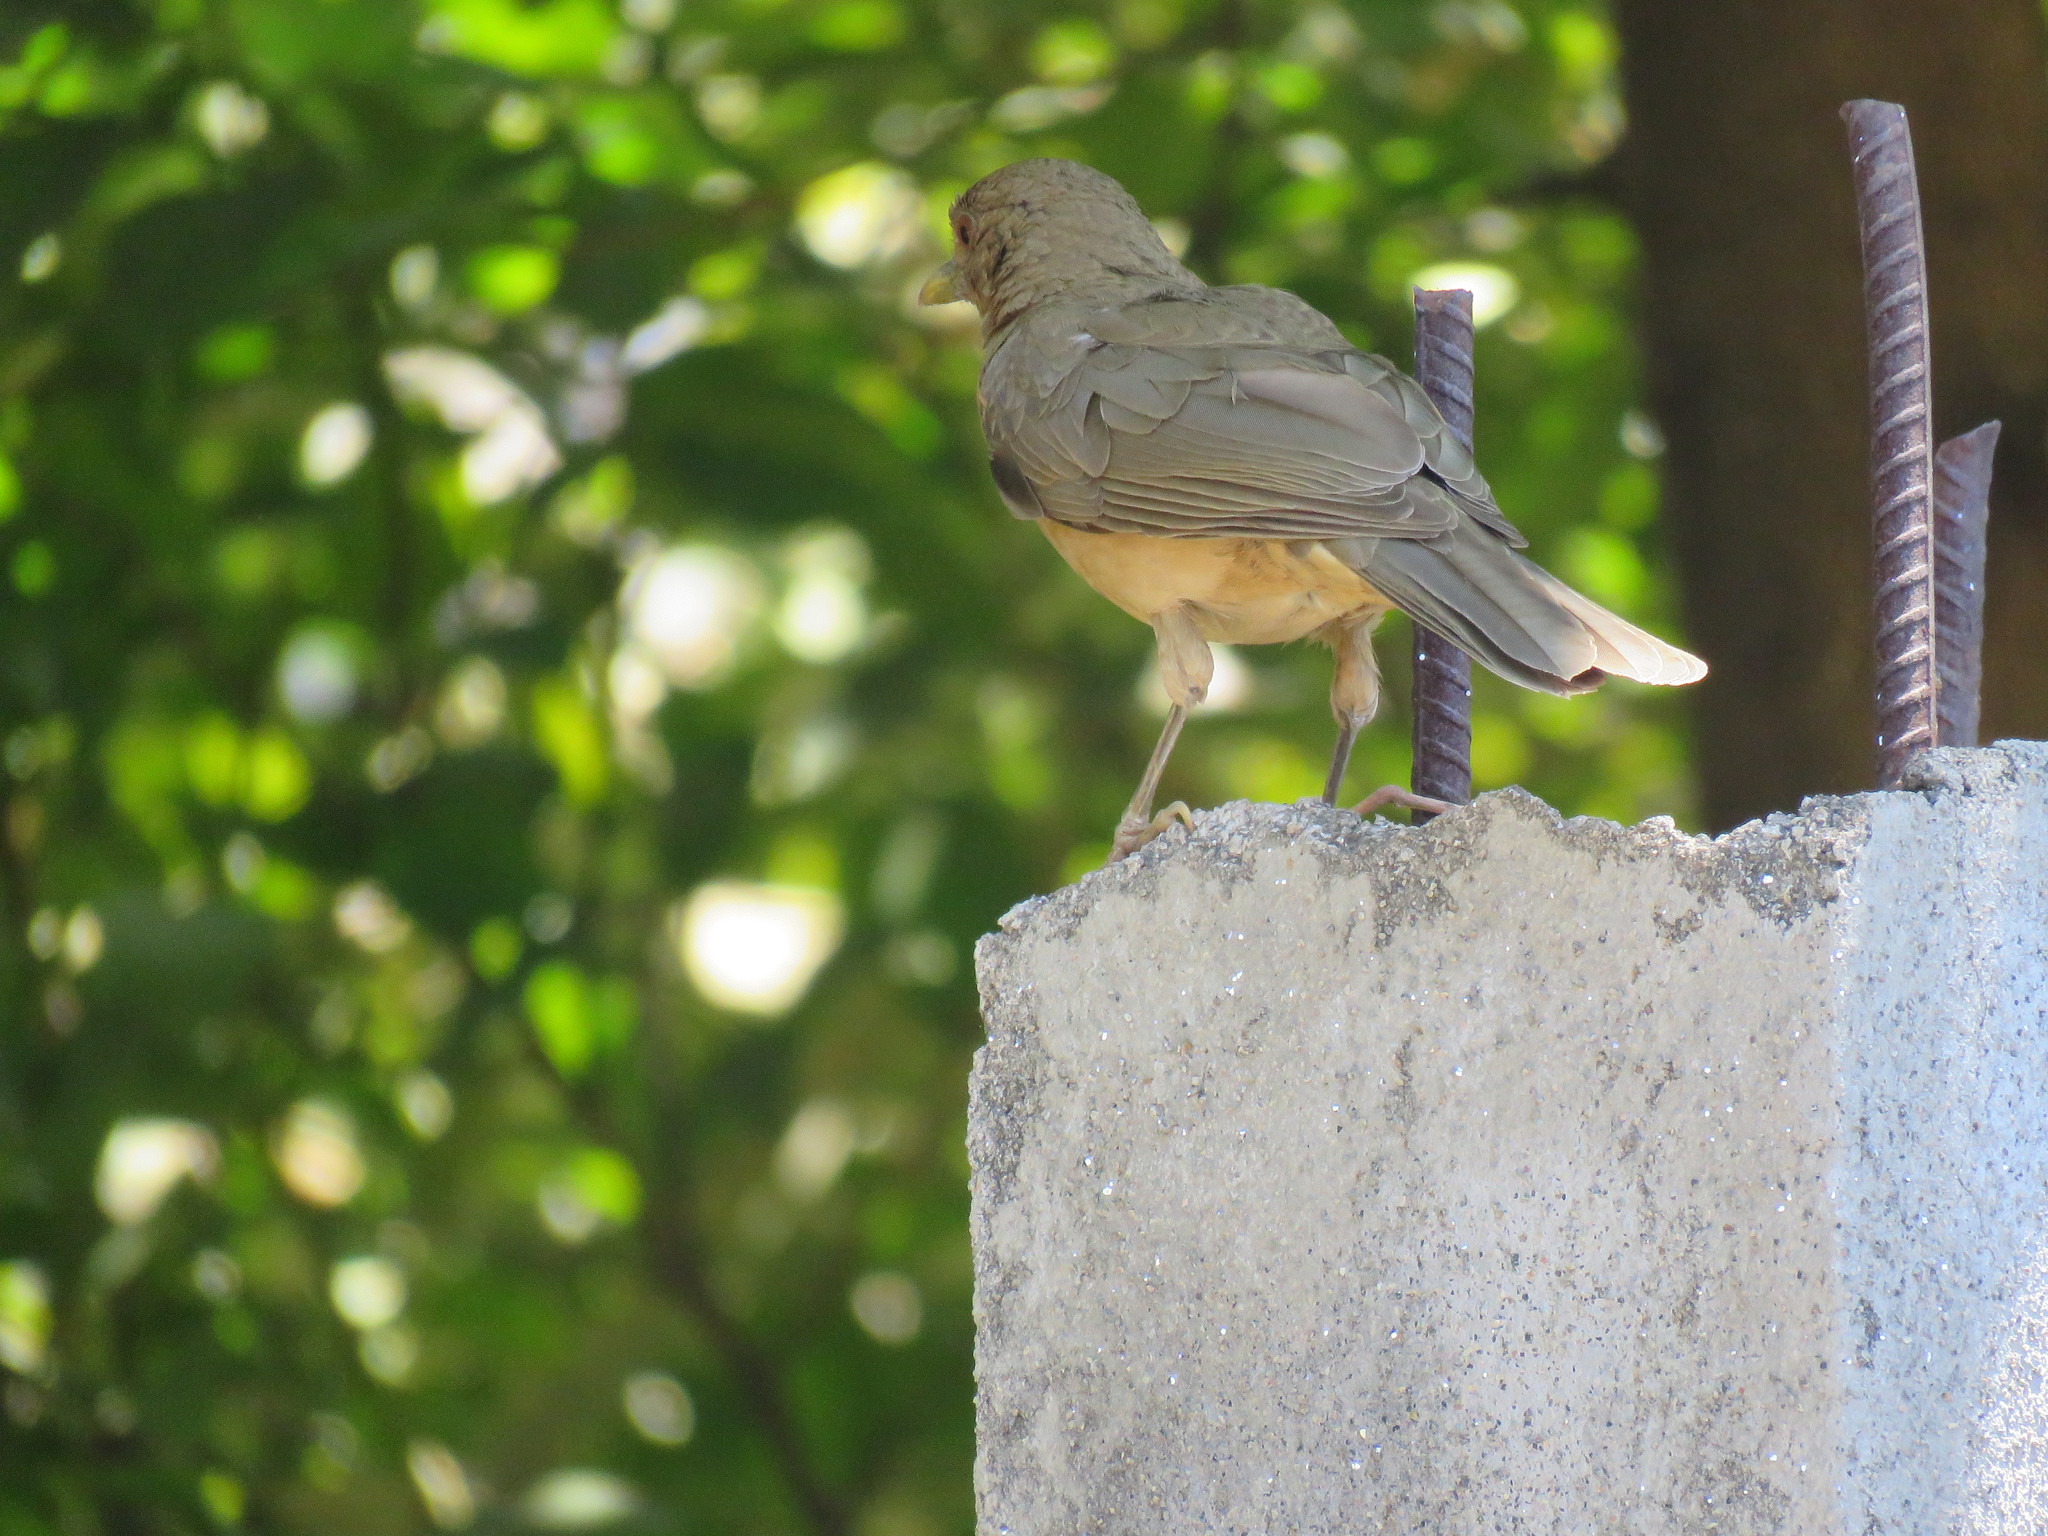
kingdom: Animalia
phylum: Chordata
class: Aves
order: Passeriformes
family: Turdidae
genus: Turdus
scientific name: Turdus grayi
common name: Clay-colored thrush
